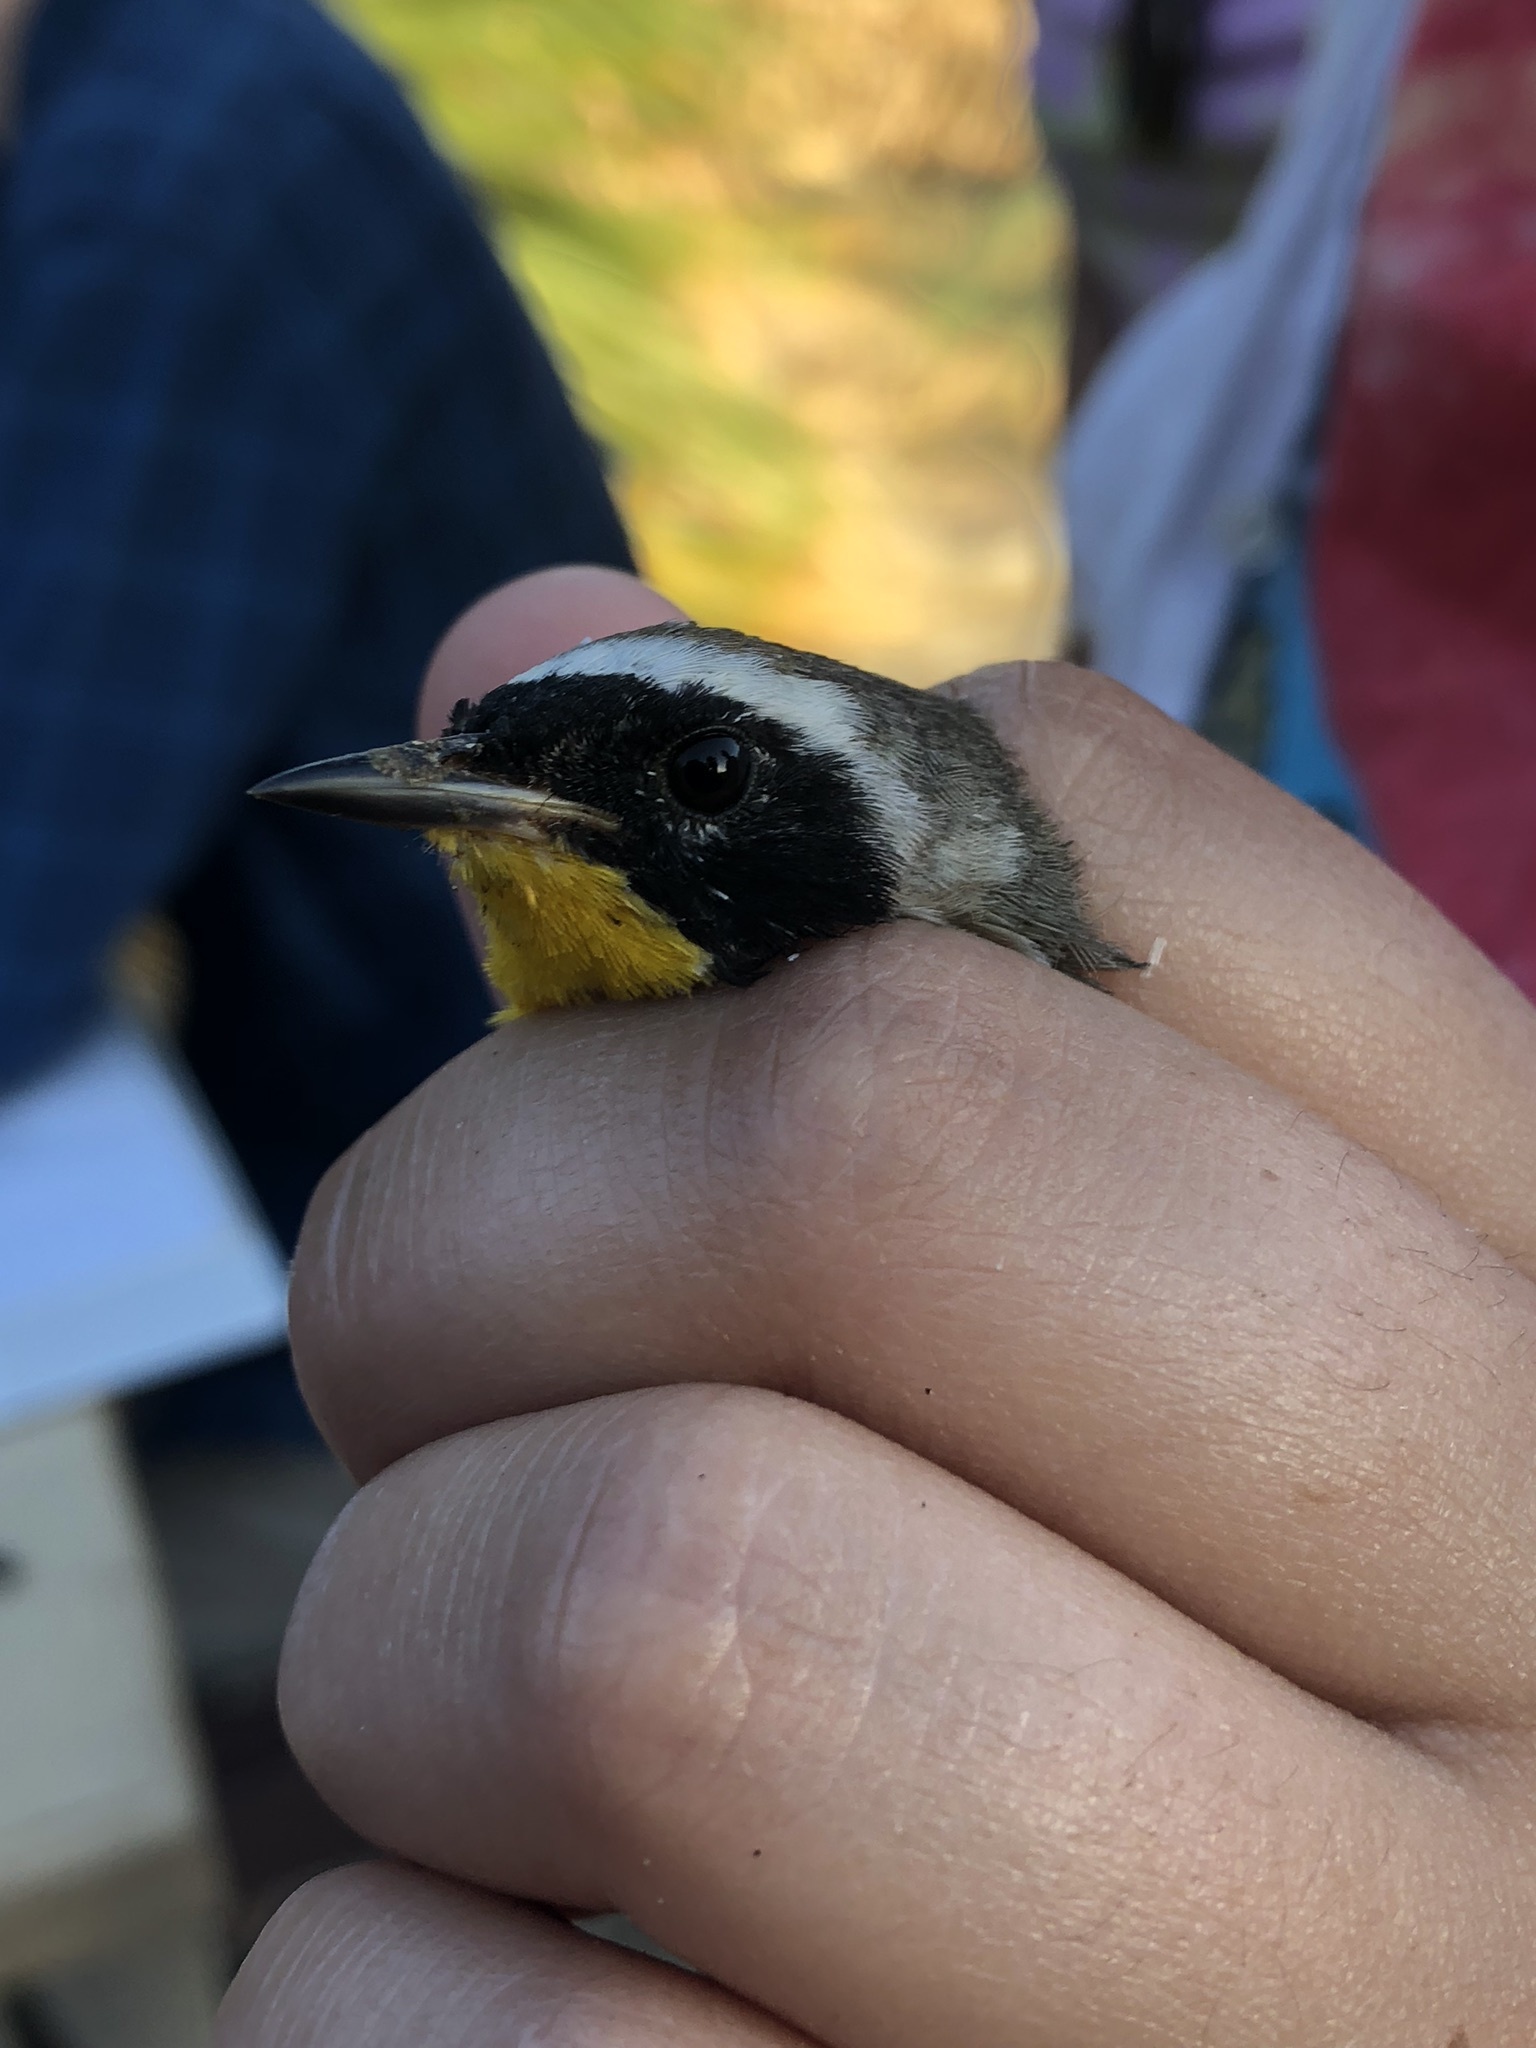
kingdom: Animalia
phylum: Chordata
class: Aves
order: Passeriformes
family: Parulidae
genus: Geothlypis
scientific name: Geothlypis trichas
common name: Common yellowthroat
